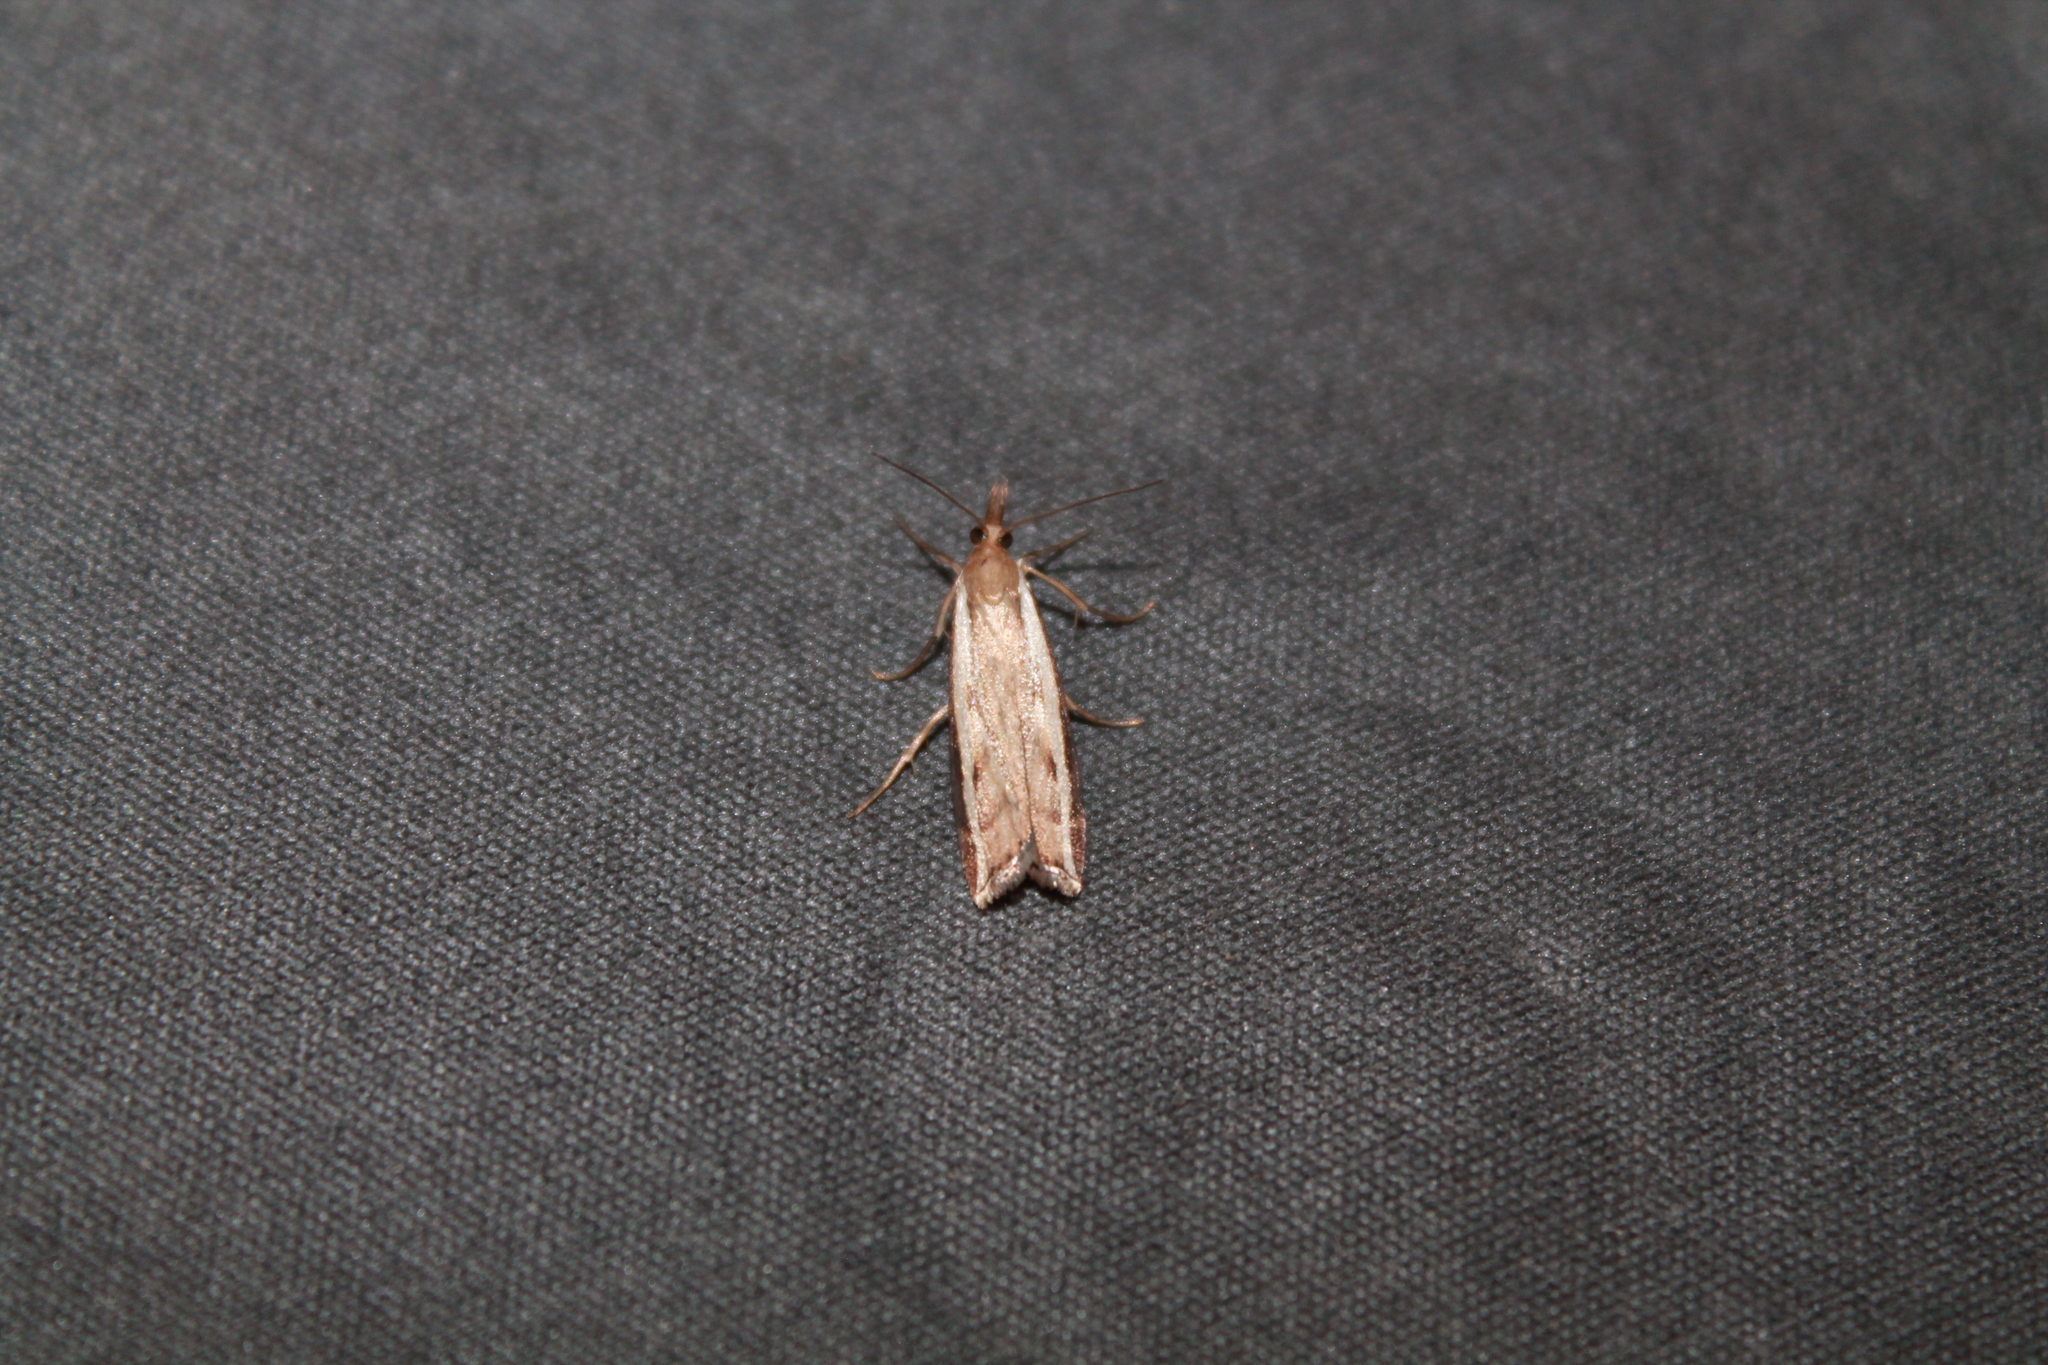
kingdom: Animalia
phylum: Arthropoda
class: Insecta
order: Lepidoptera
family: Crambidae
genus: Orocrambus
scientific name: Orocrambus flexuosellus
